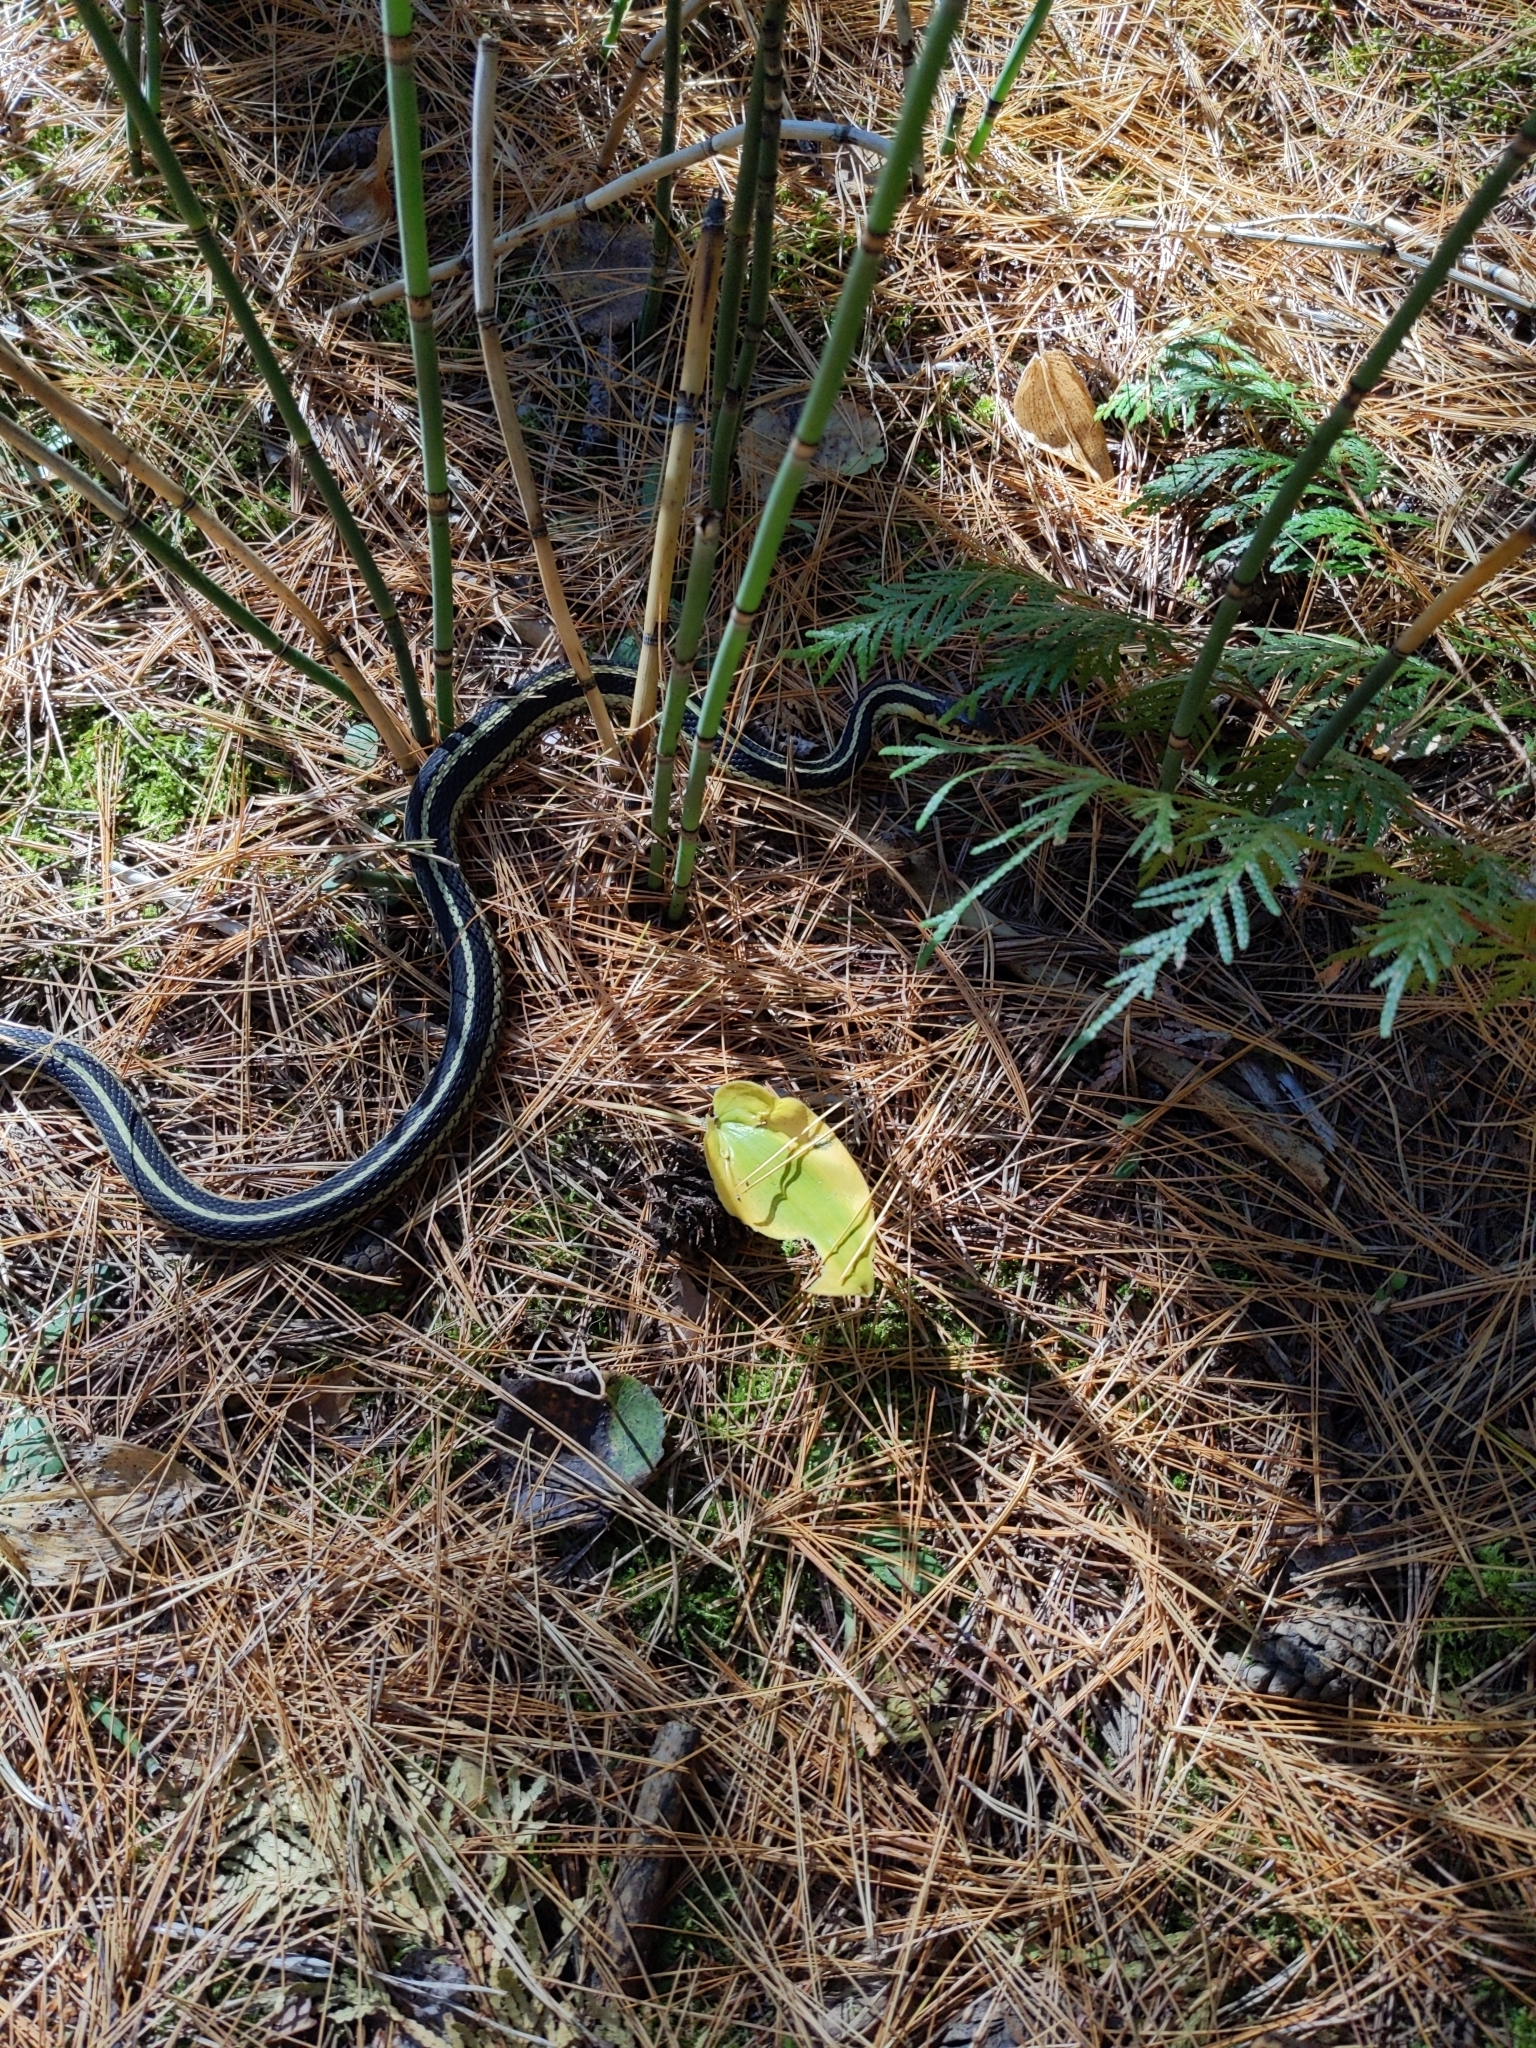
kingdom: Animalia
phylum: Chordata
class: Squamata
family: Colubridae
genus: Thamnophis
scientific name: Thamnophis sirtalis
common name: Common garter snake
